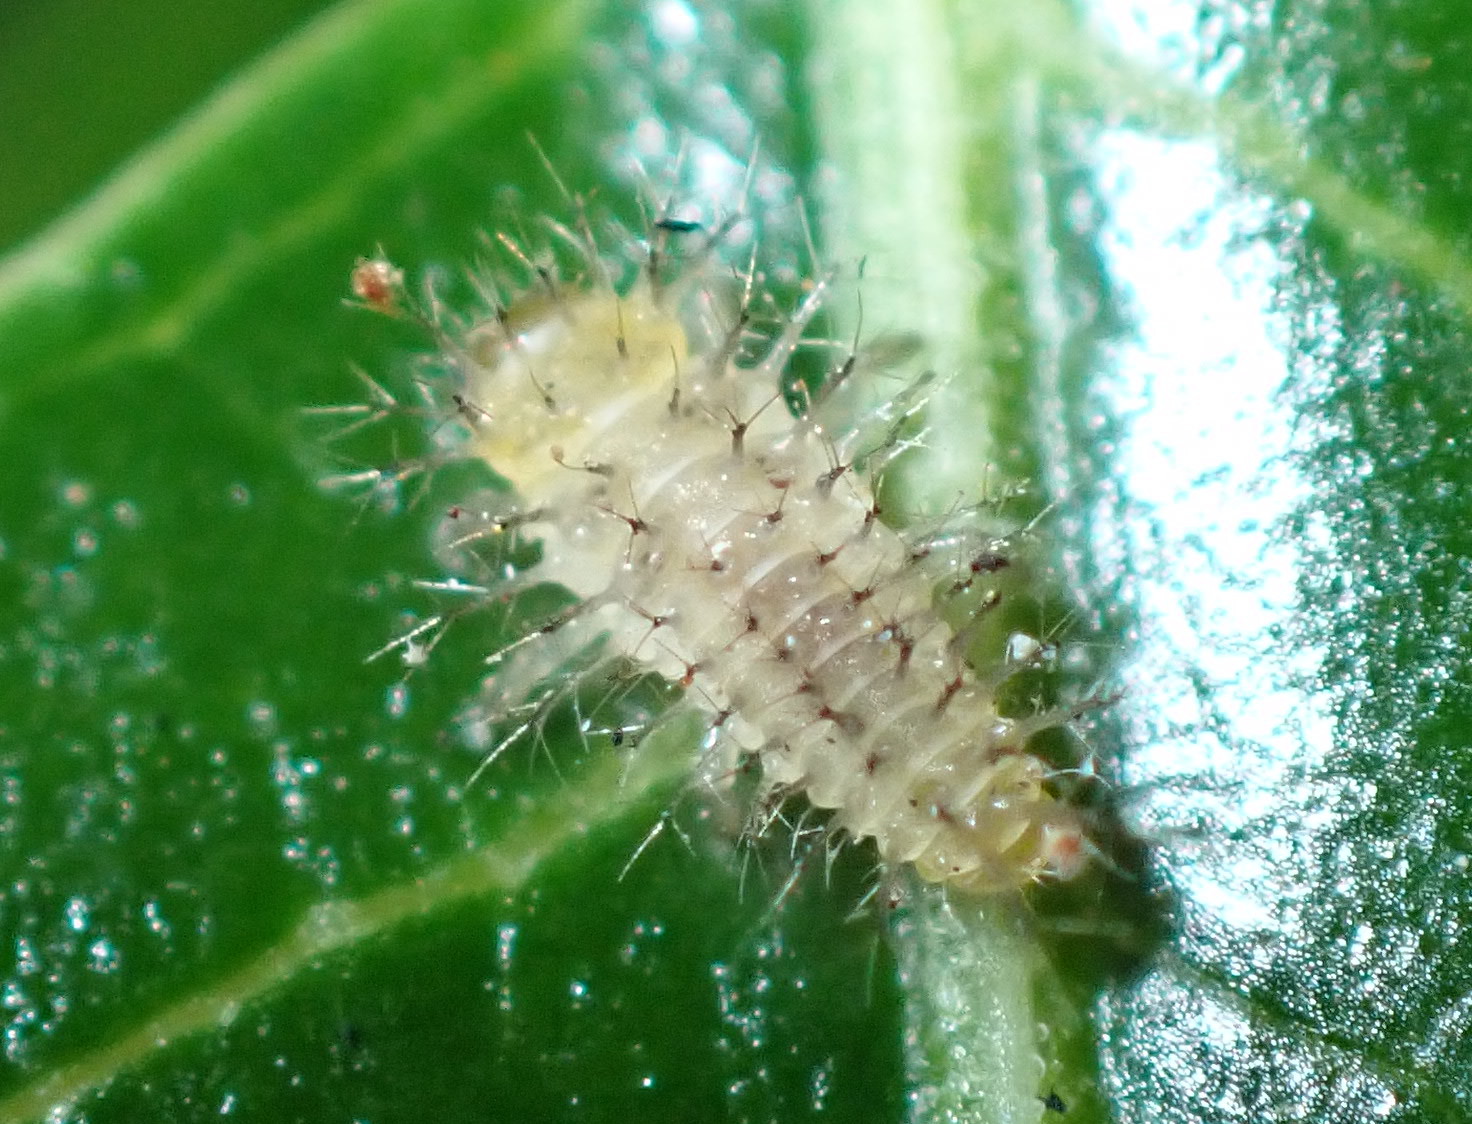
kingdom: Animalia
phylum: Arthropoda
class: Insecta
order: Coleoptera
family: Coccinellidae
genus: Halmus
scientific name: Halmus chalybeus
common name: Steel blue ladybird beetle
